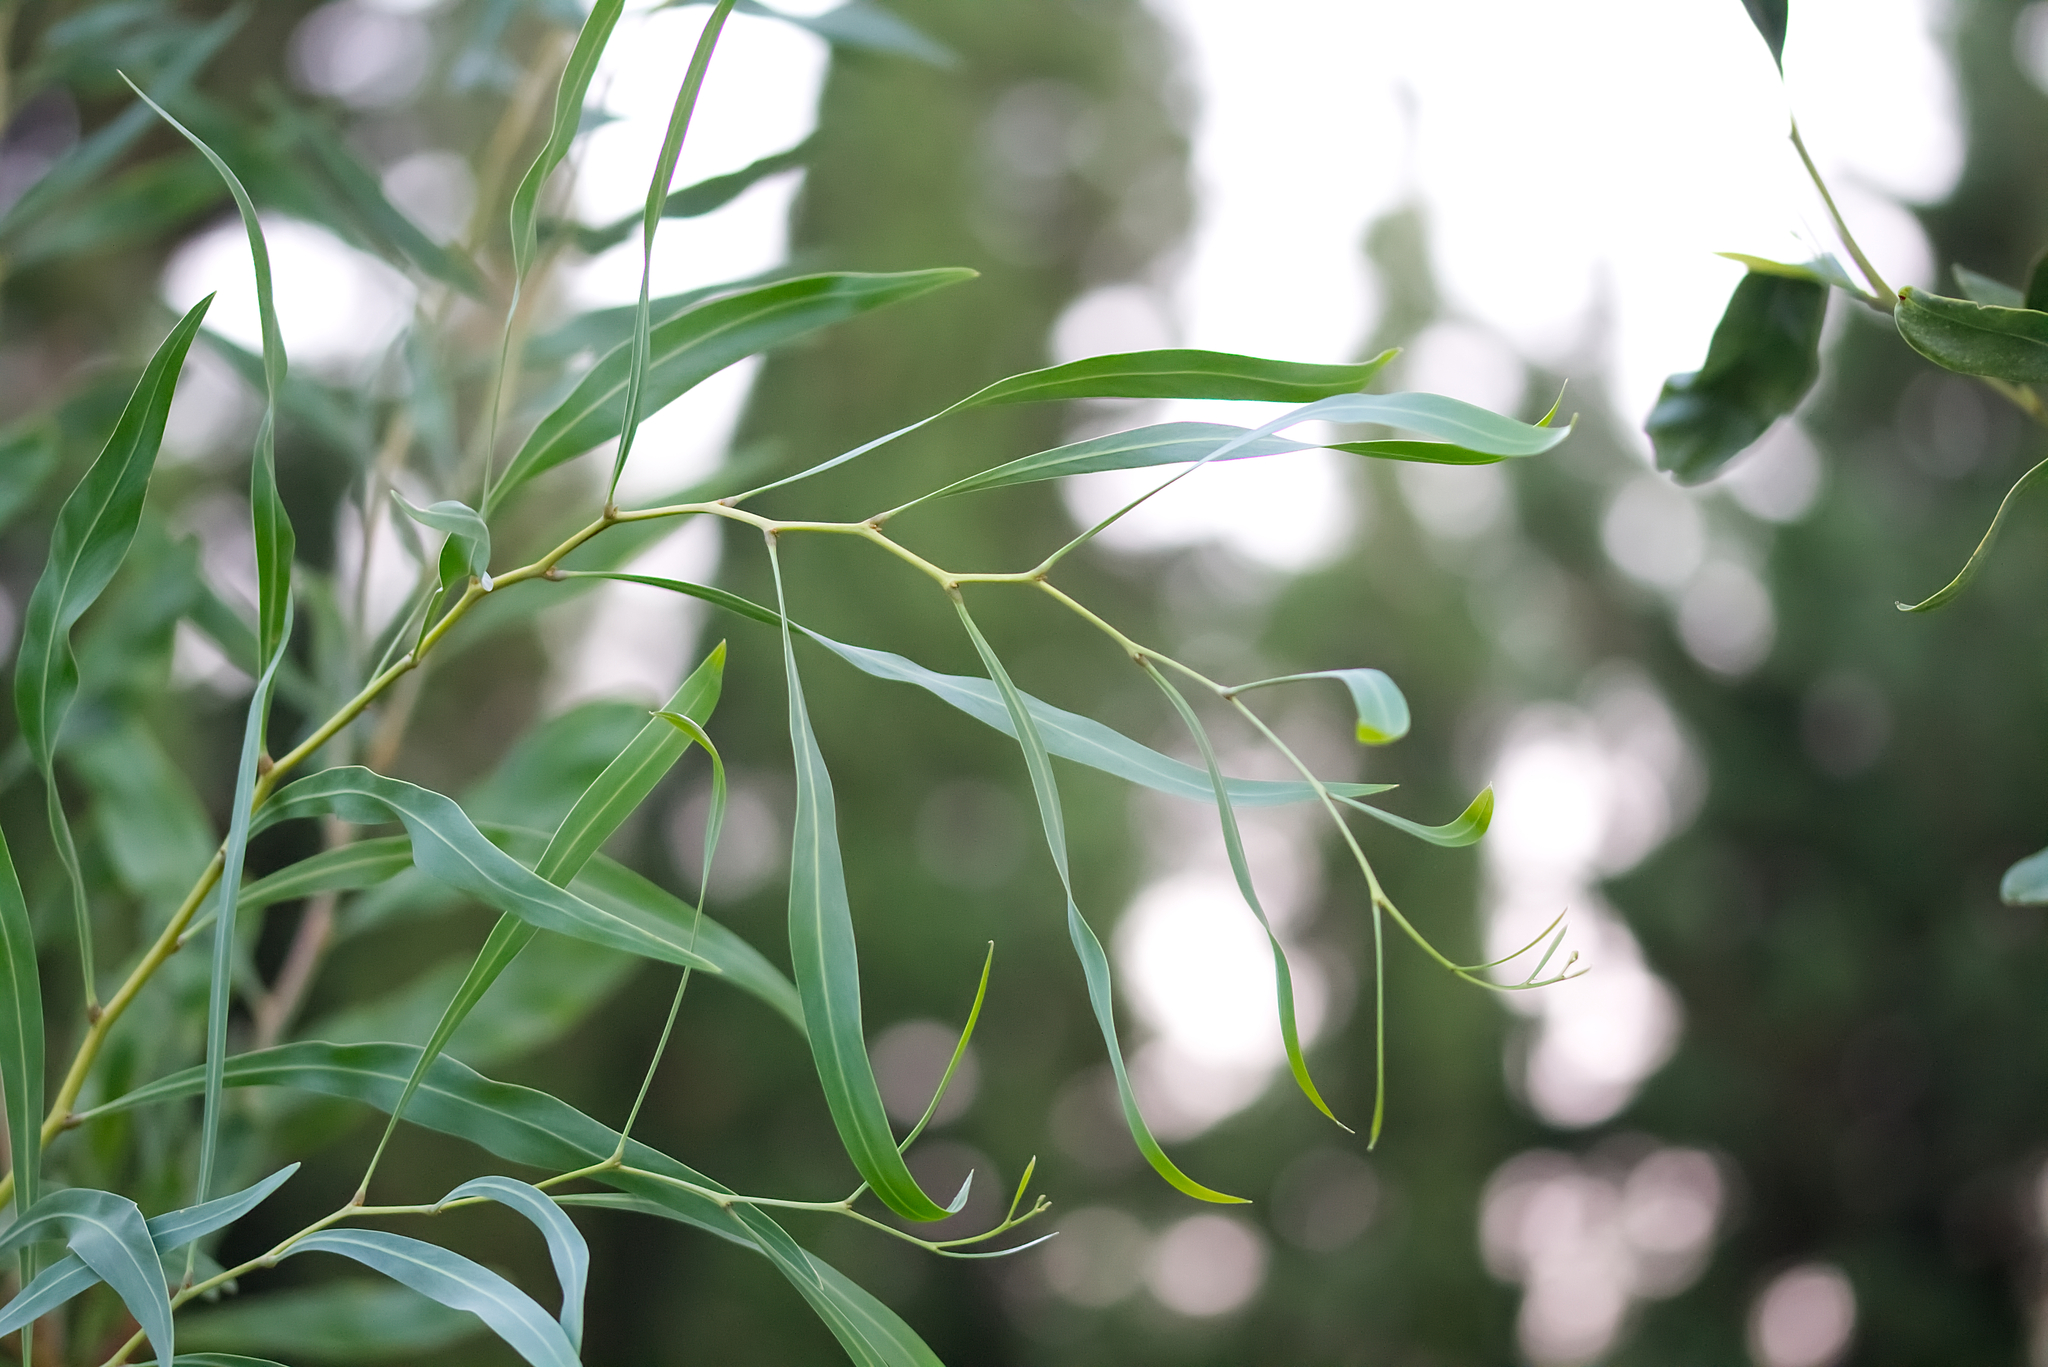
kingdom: Plantae
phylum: Tracheophyta
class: Magnoliopsida
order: Fabales
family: Fabaceae
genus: Acacia
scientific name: Acacia saligna
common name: Orange wattle
